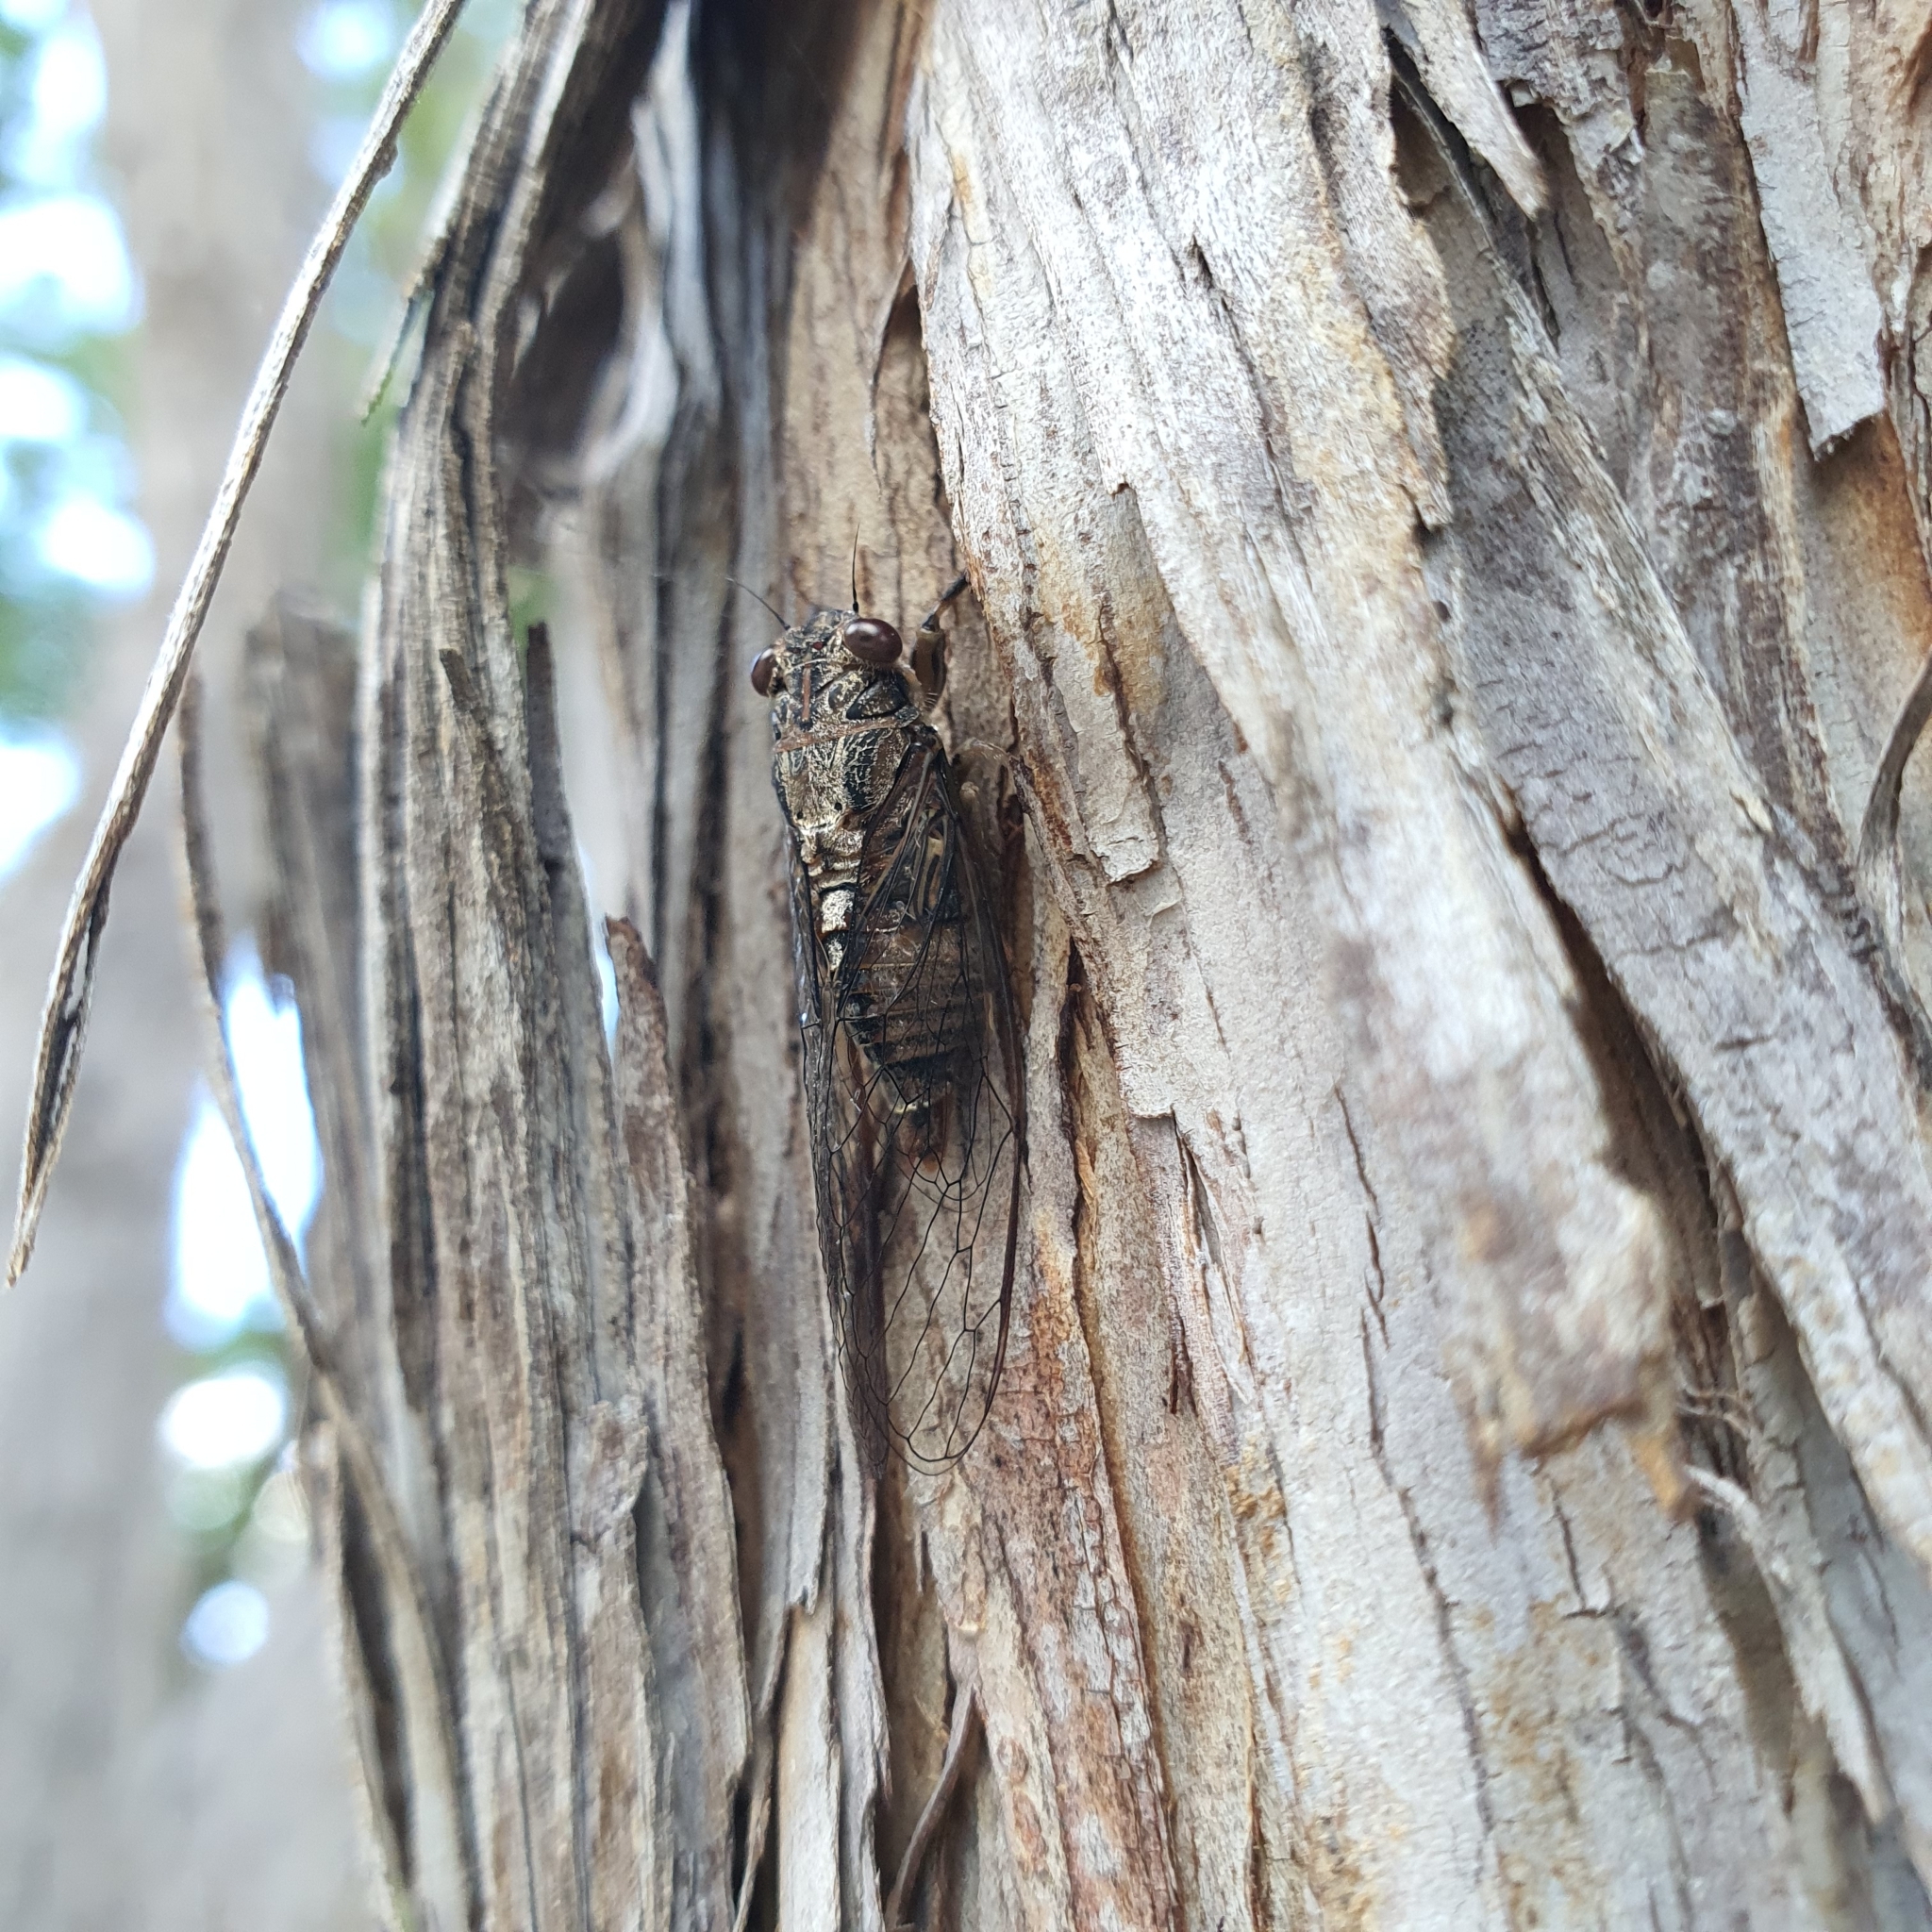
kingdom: Animalia
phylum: Arthropoda
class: Insecta
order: Hemiptera
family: Cicadidae
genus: Yoyetta
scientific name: Yoyetta celis
